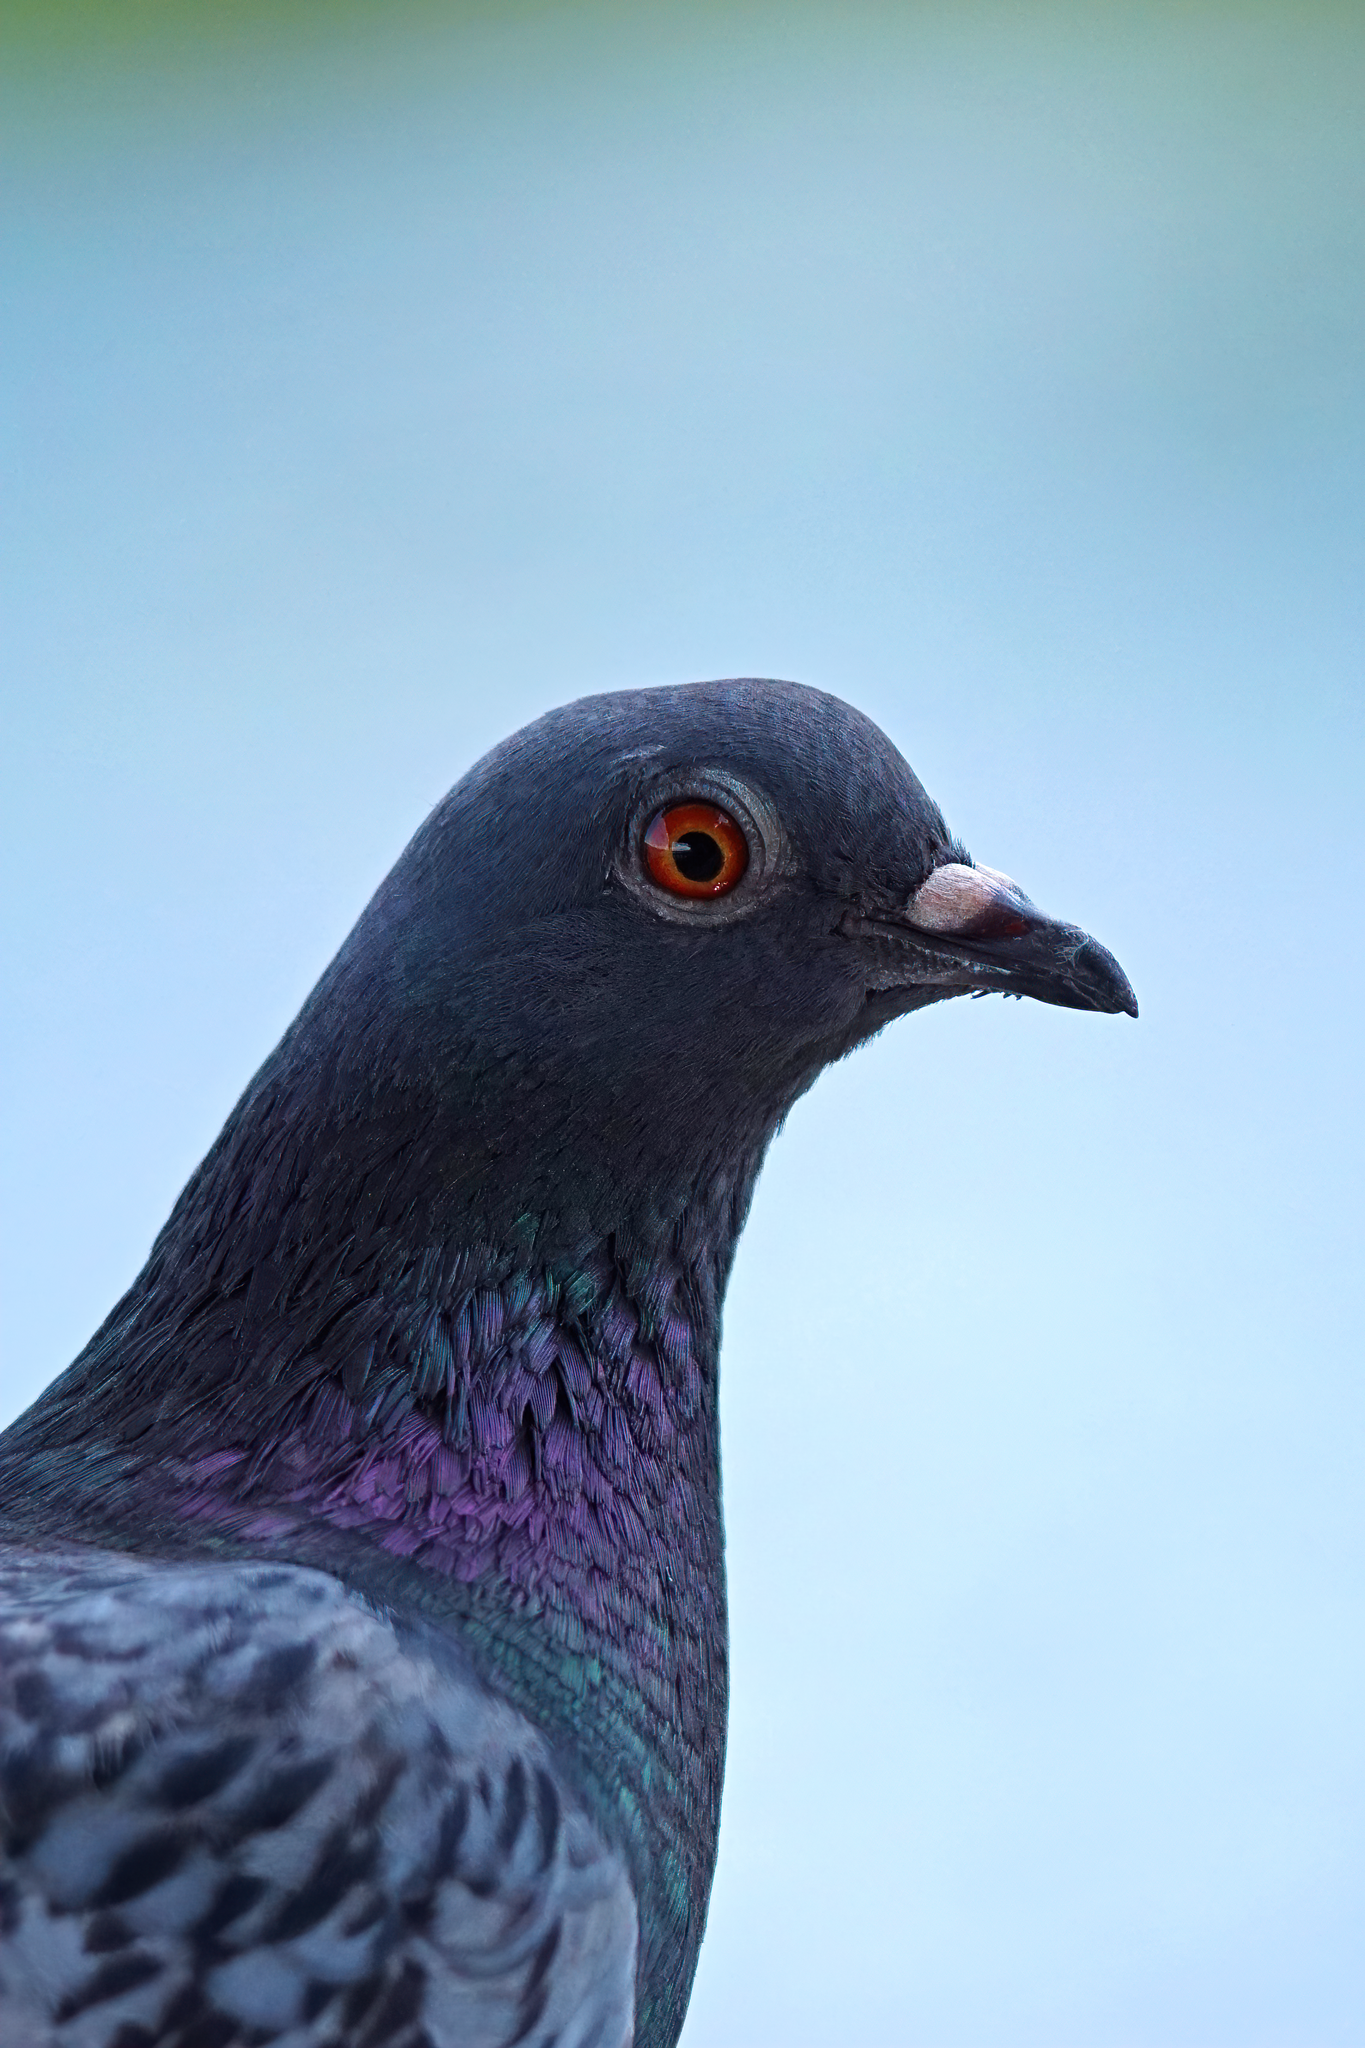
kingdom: Animalia
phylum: Chordata
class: Aves
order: Columbiformes
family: Columbidae
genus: Columba
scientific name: Columba livia
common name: Rock pigeon
